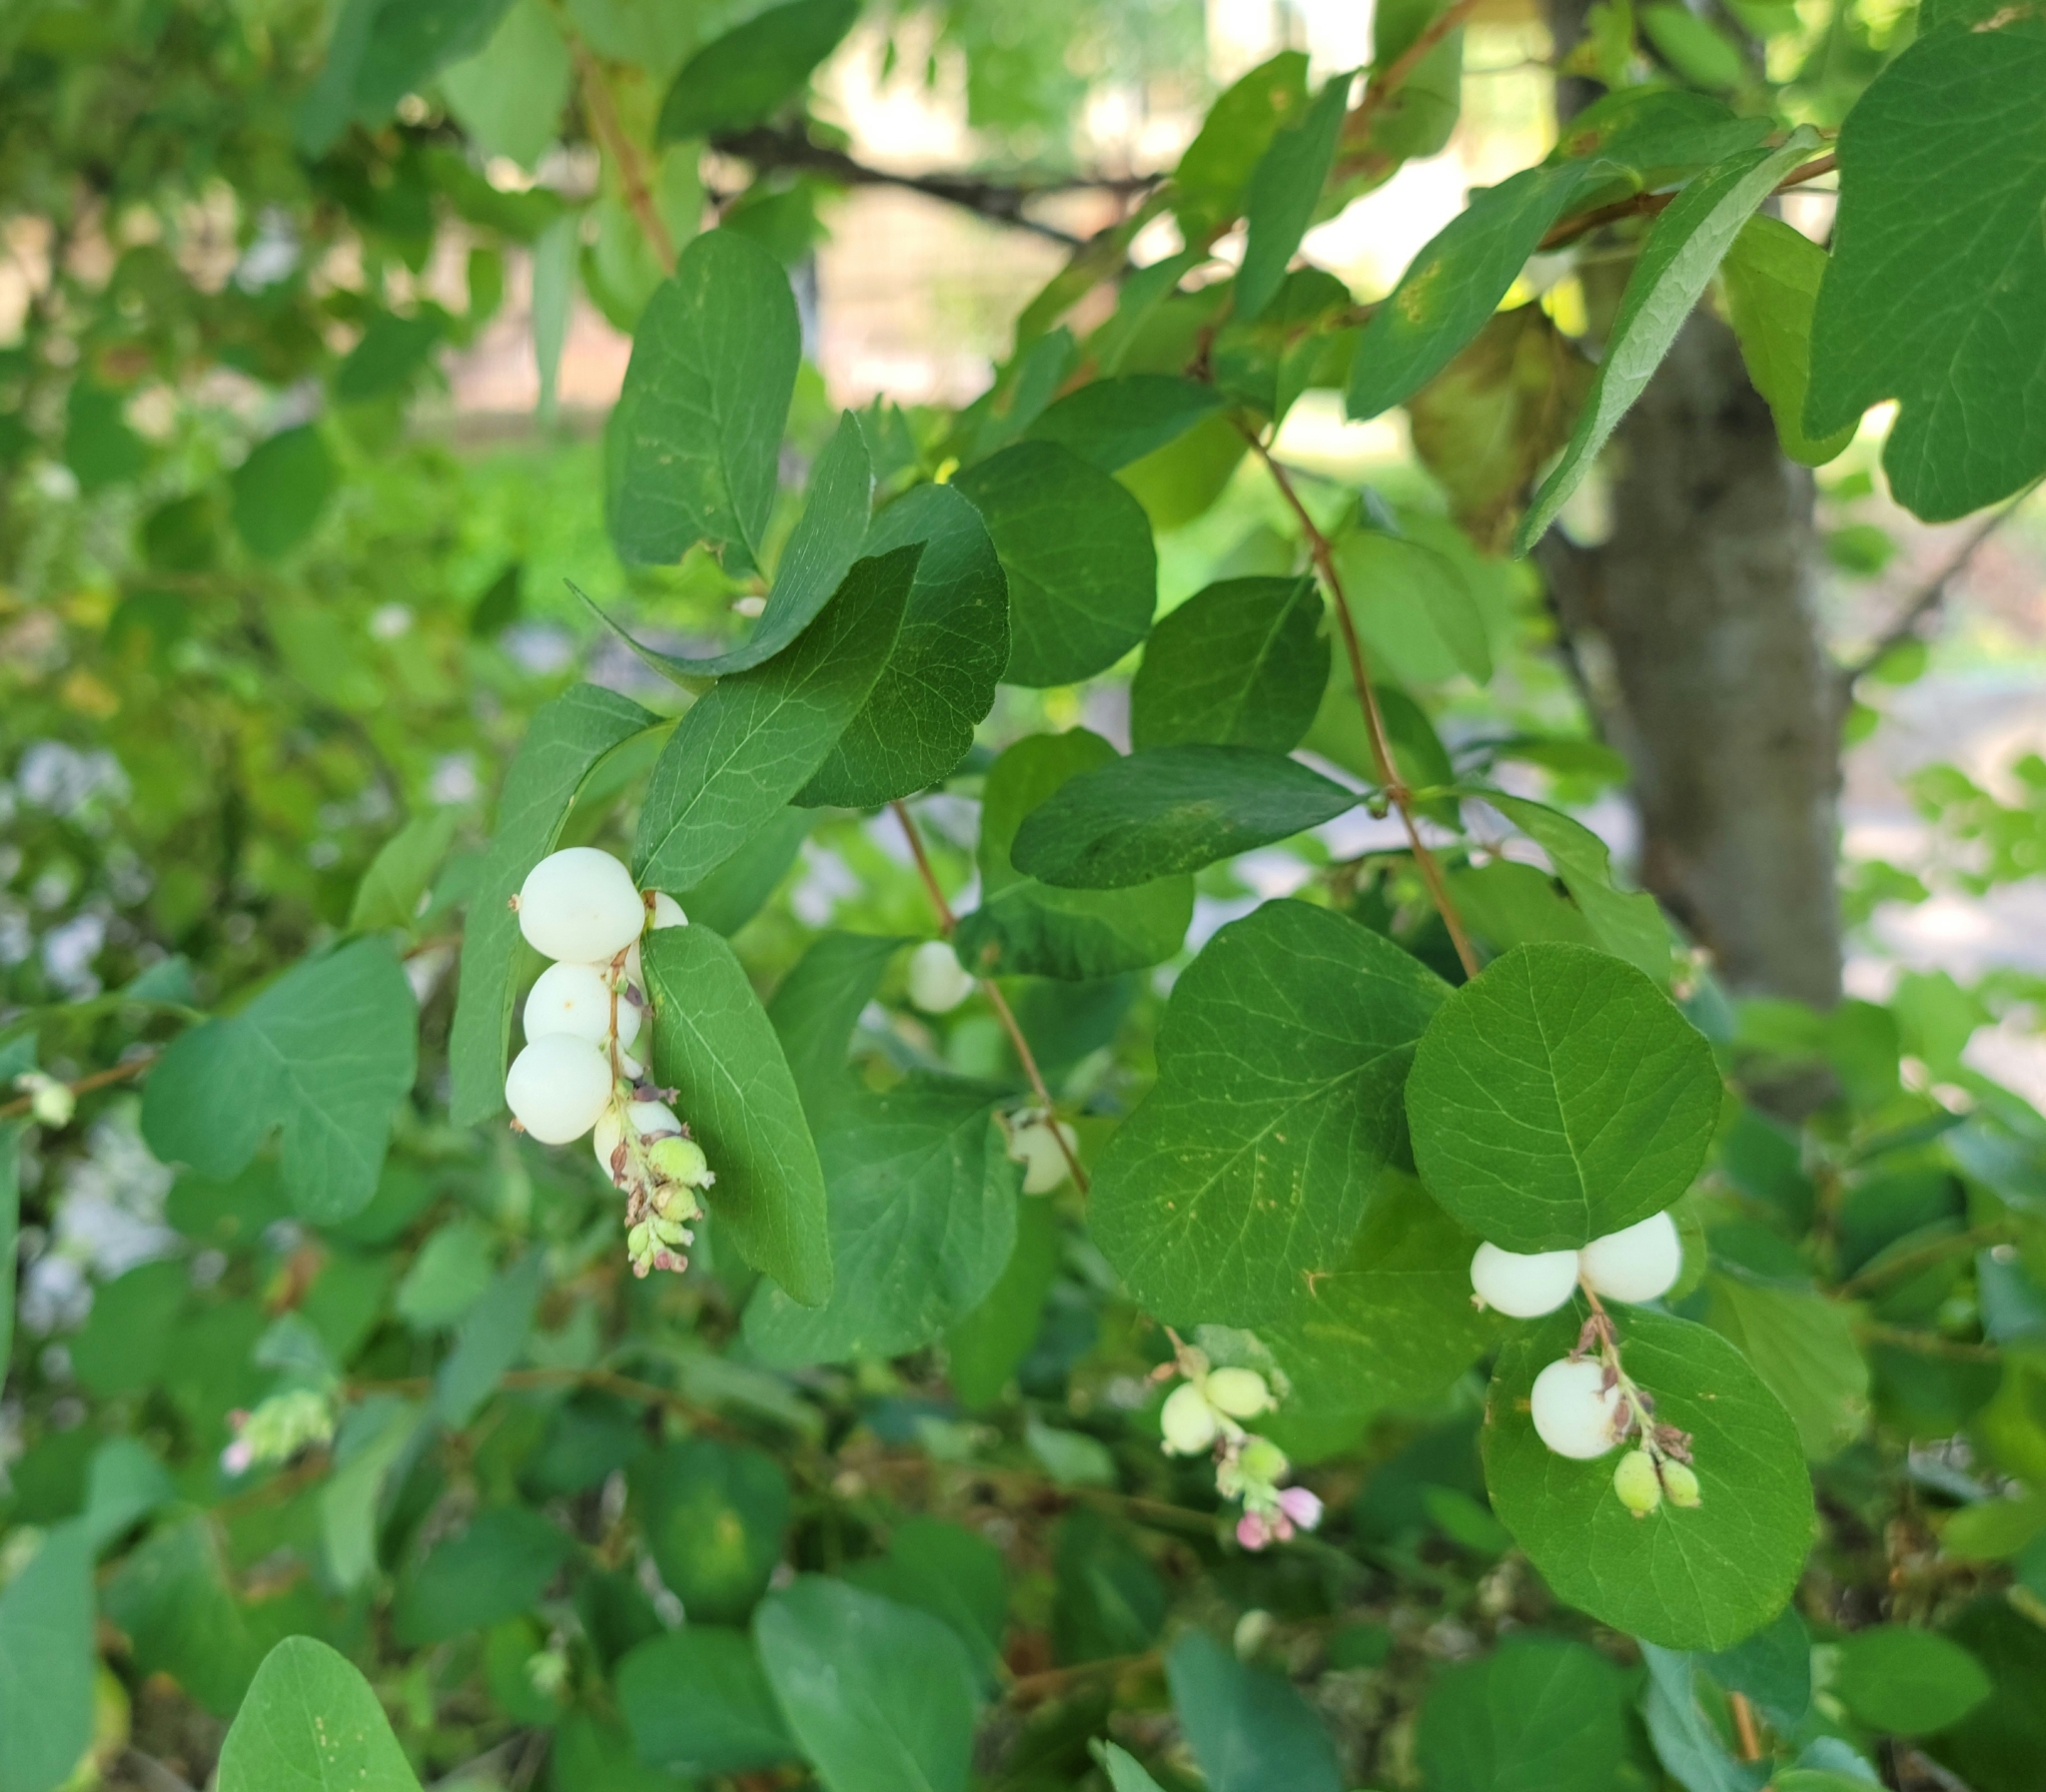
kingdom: Plantae
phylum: Tracheophyta
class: Magnoliopsida
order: Dipsacales
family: Caprifoliaceae
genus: Symphoricarpos
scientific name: Symphoricarpos albus
